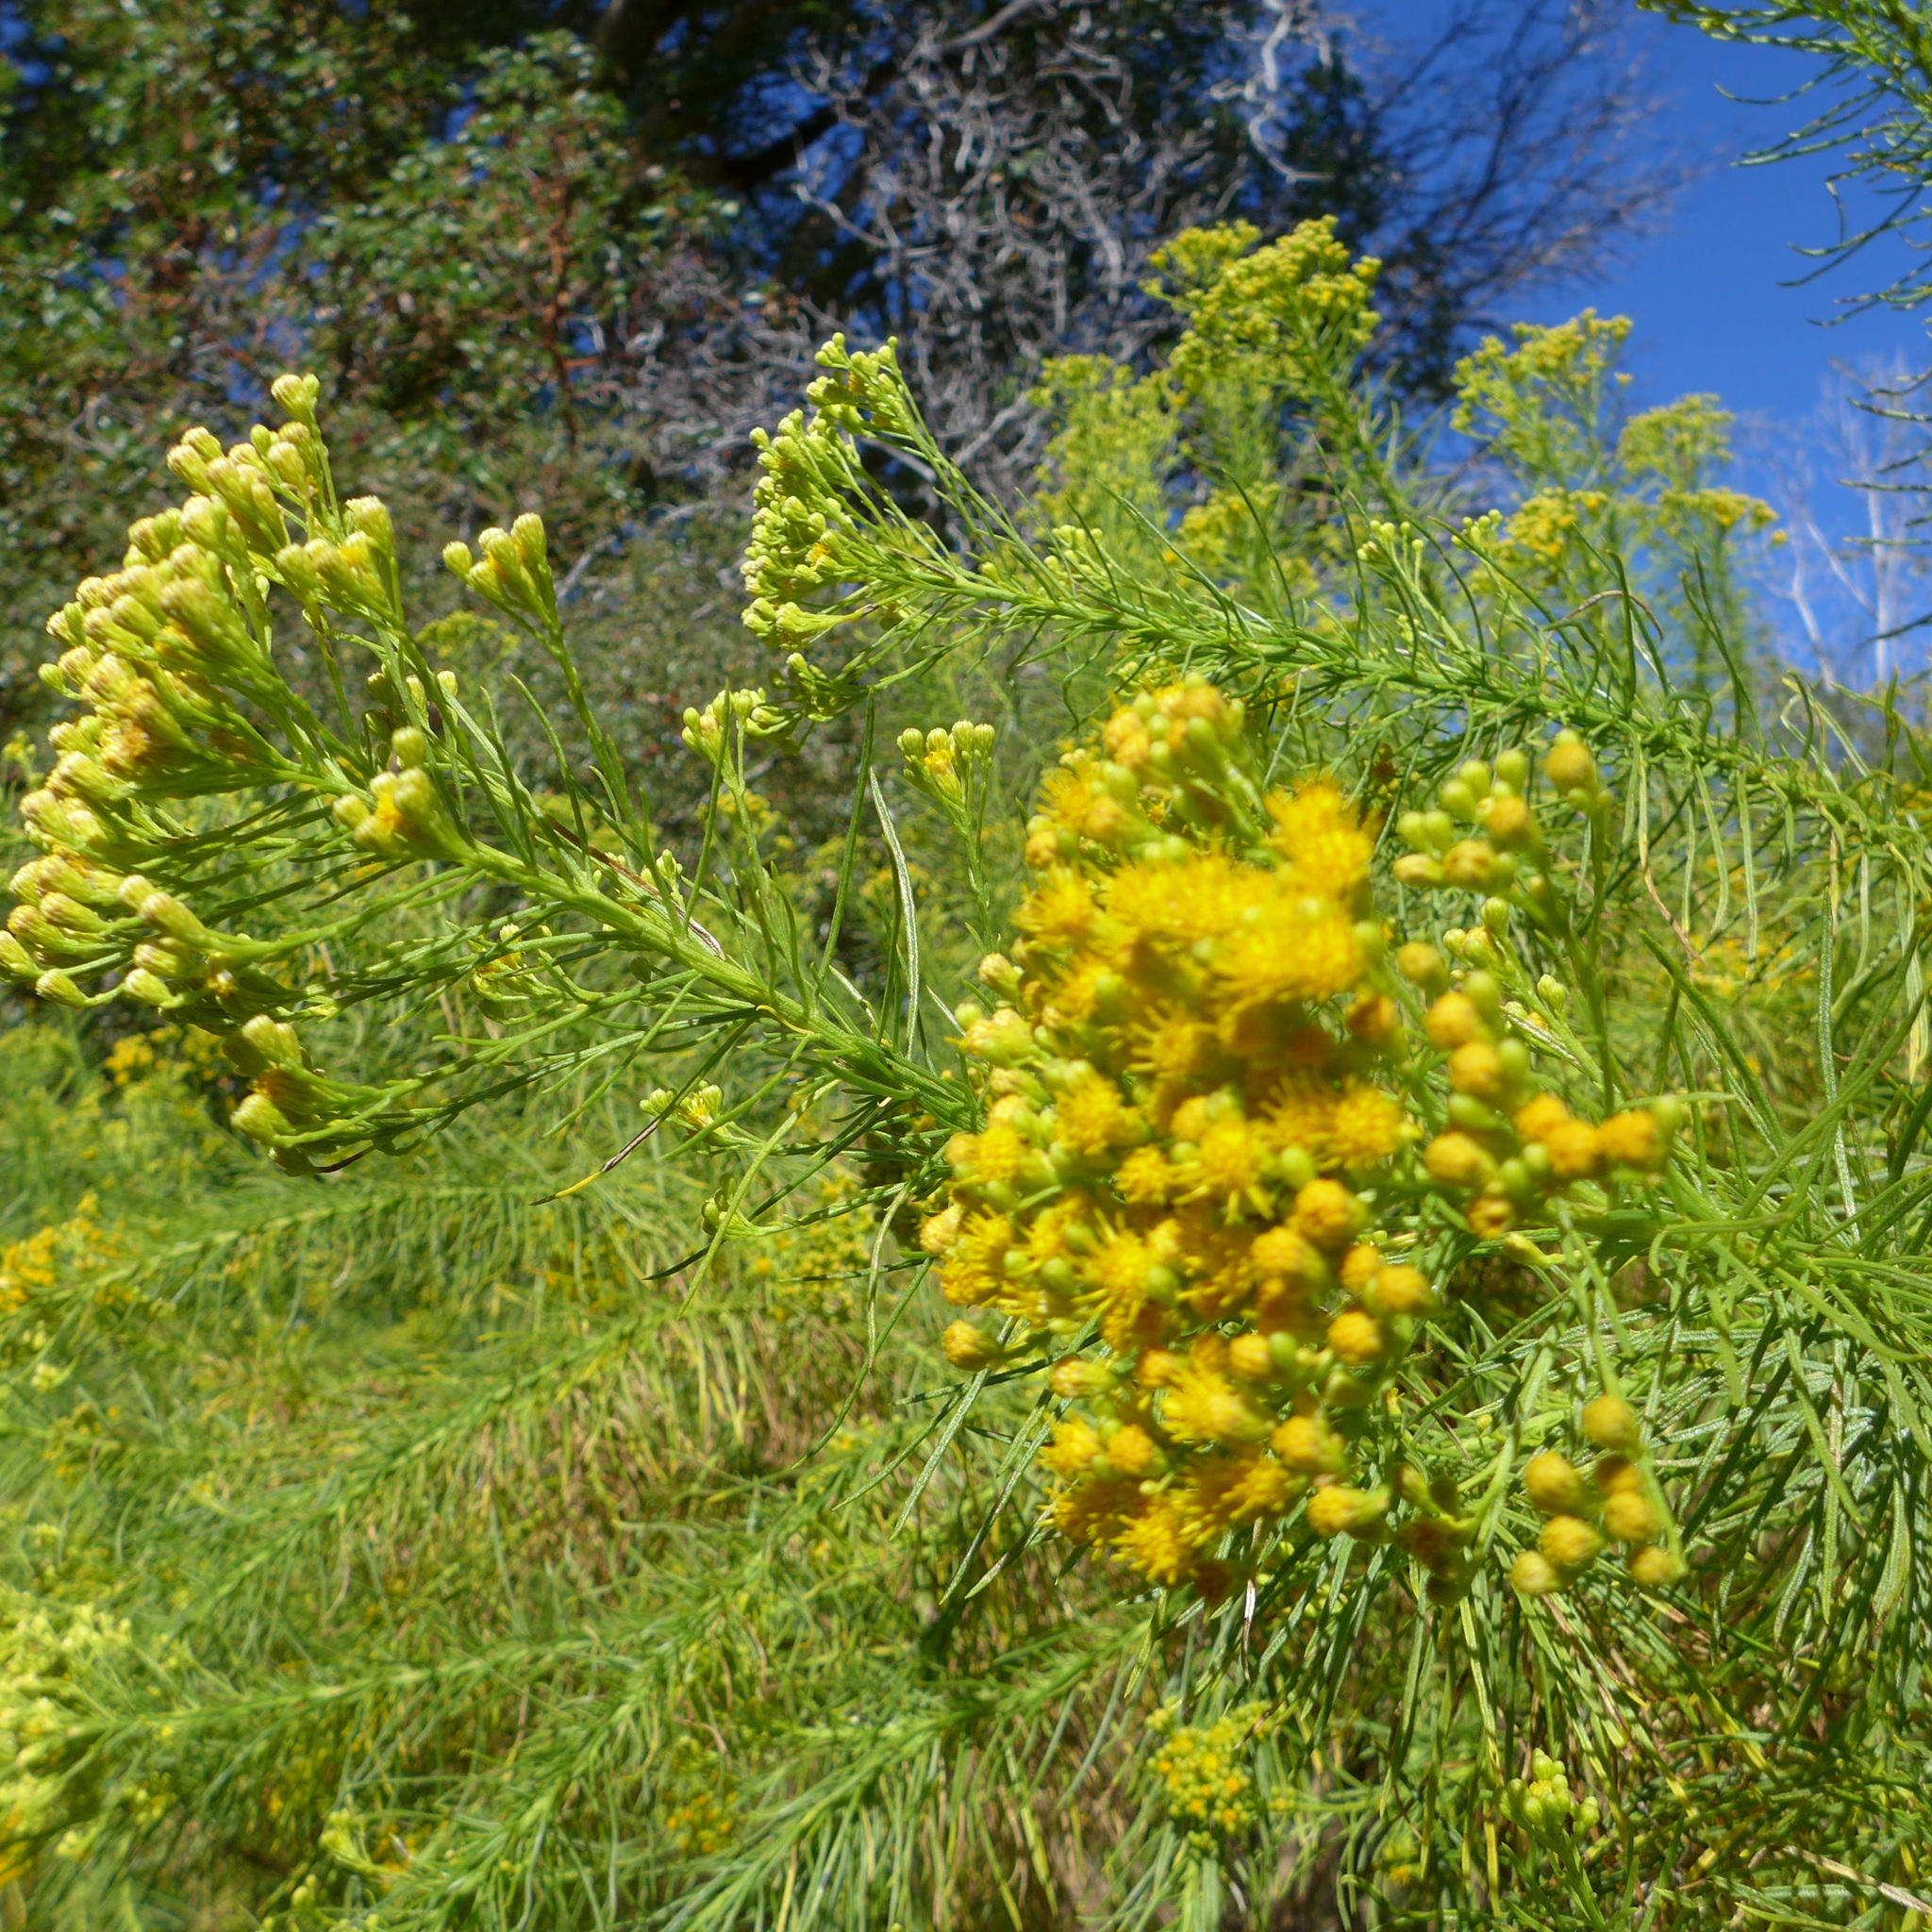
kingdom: Plantae
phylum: Tracheophyta
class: Magnoliopsida
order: Asterales
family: Asteraceae
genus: Ericameria
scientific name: Ericameria arborescens
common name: Goldenfleece
